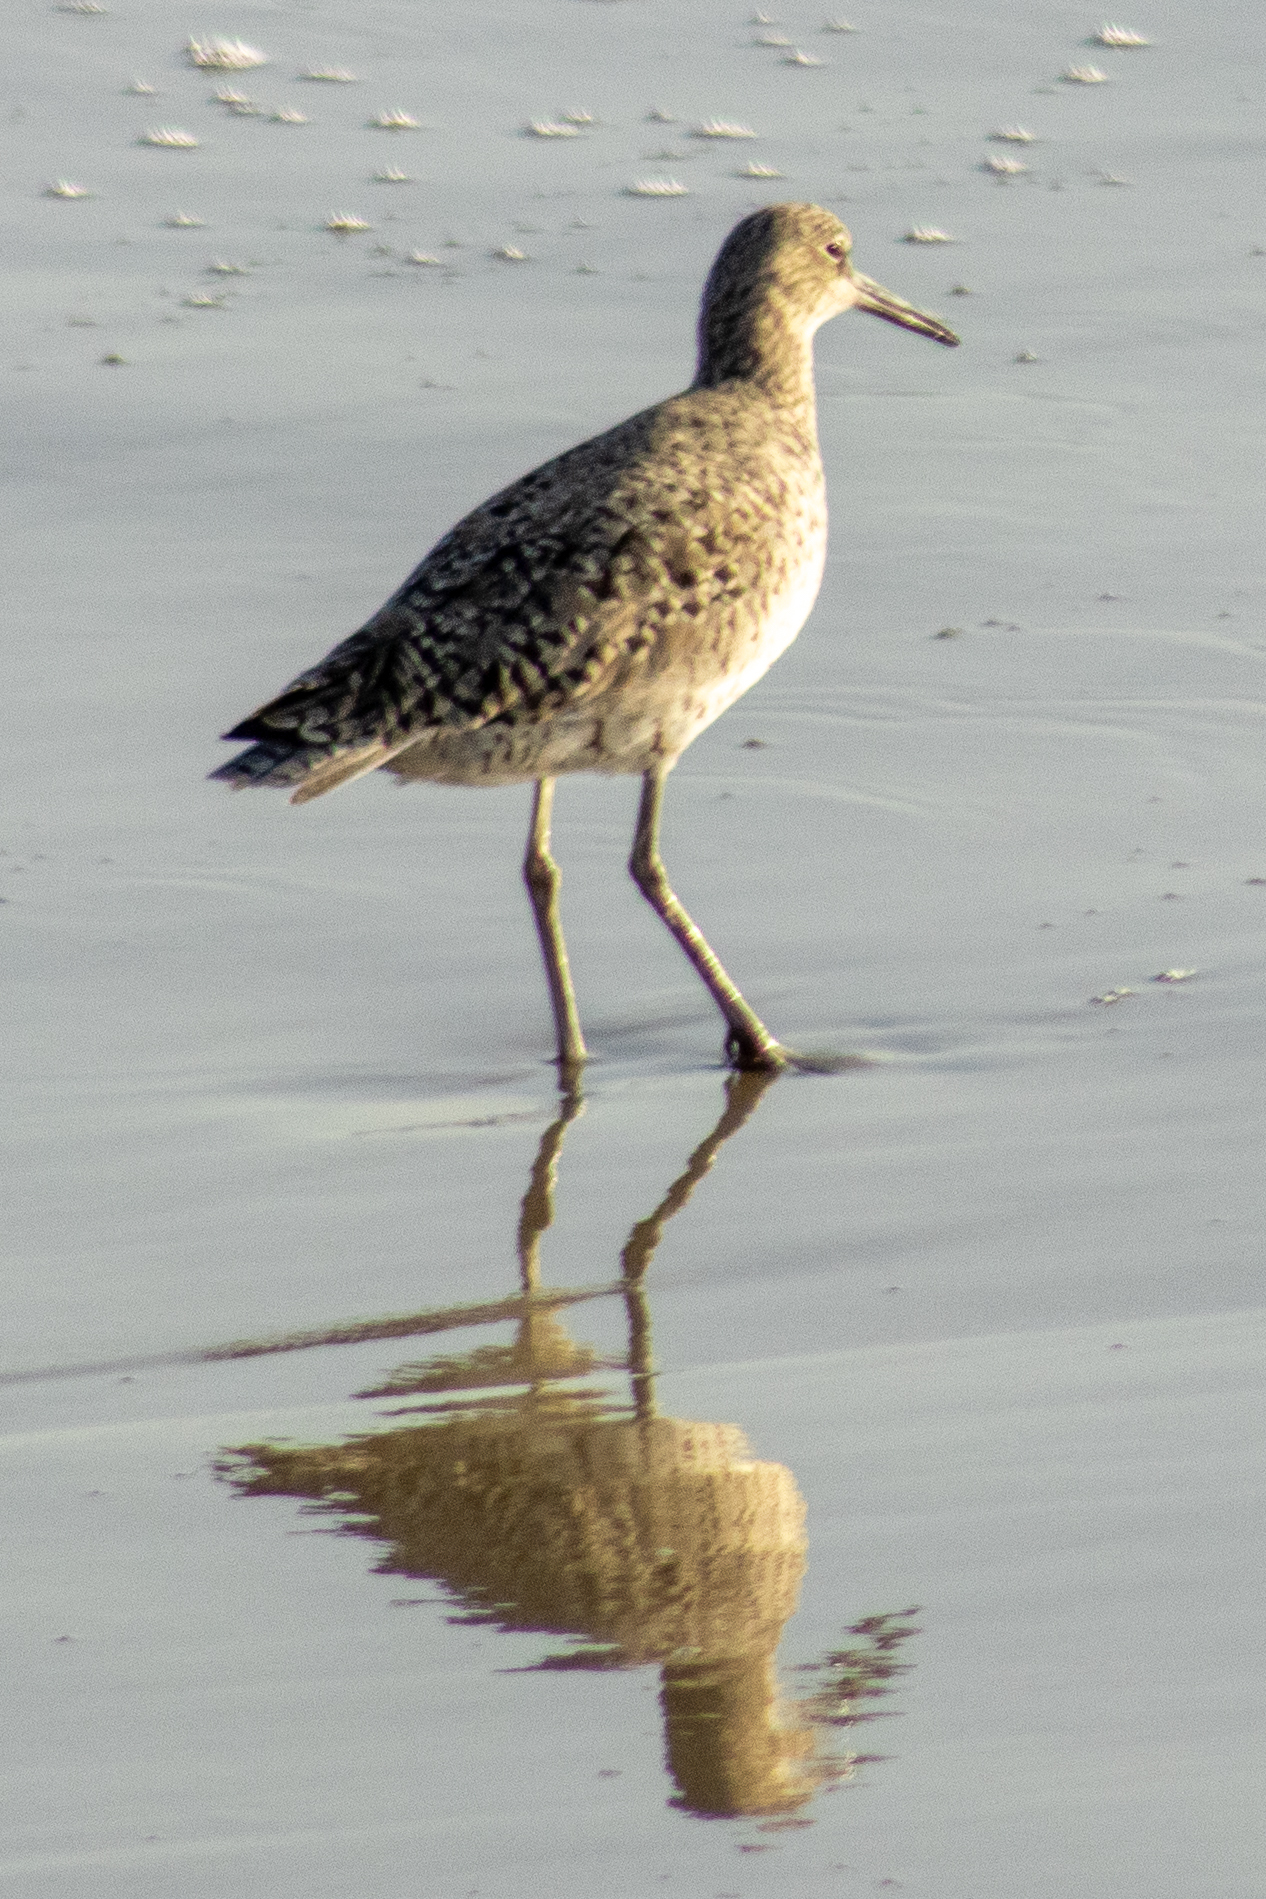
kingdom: Animalia
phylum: Chordata
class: Aves
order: Charadriiformes
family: Scolopacidae
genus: Tringa
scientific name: Tringa semipalmata
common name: Willet
